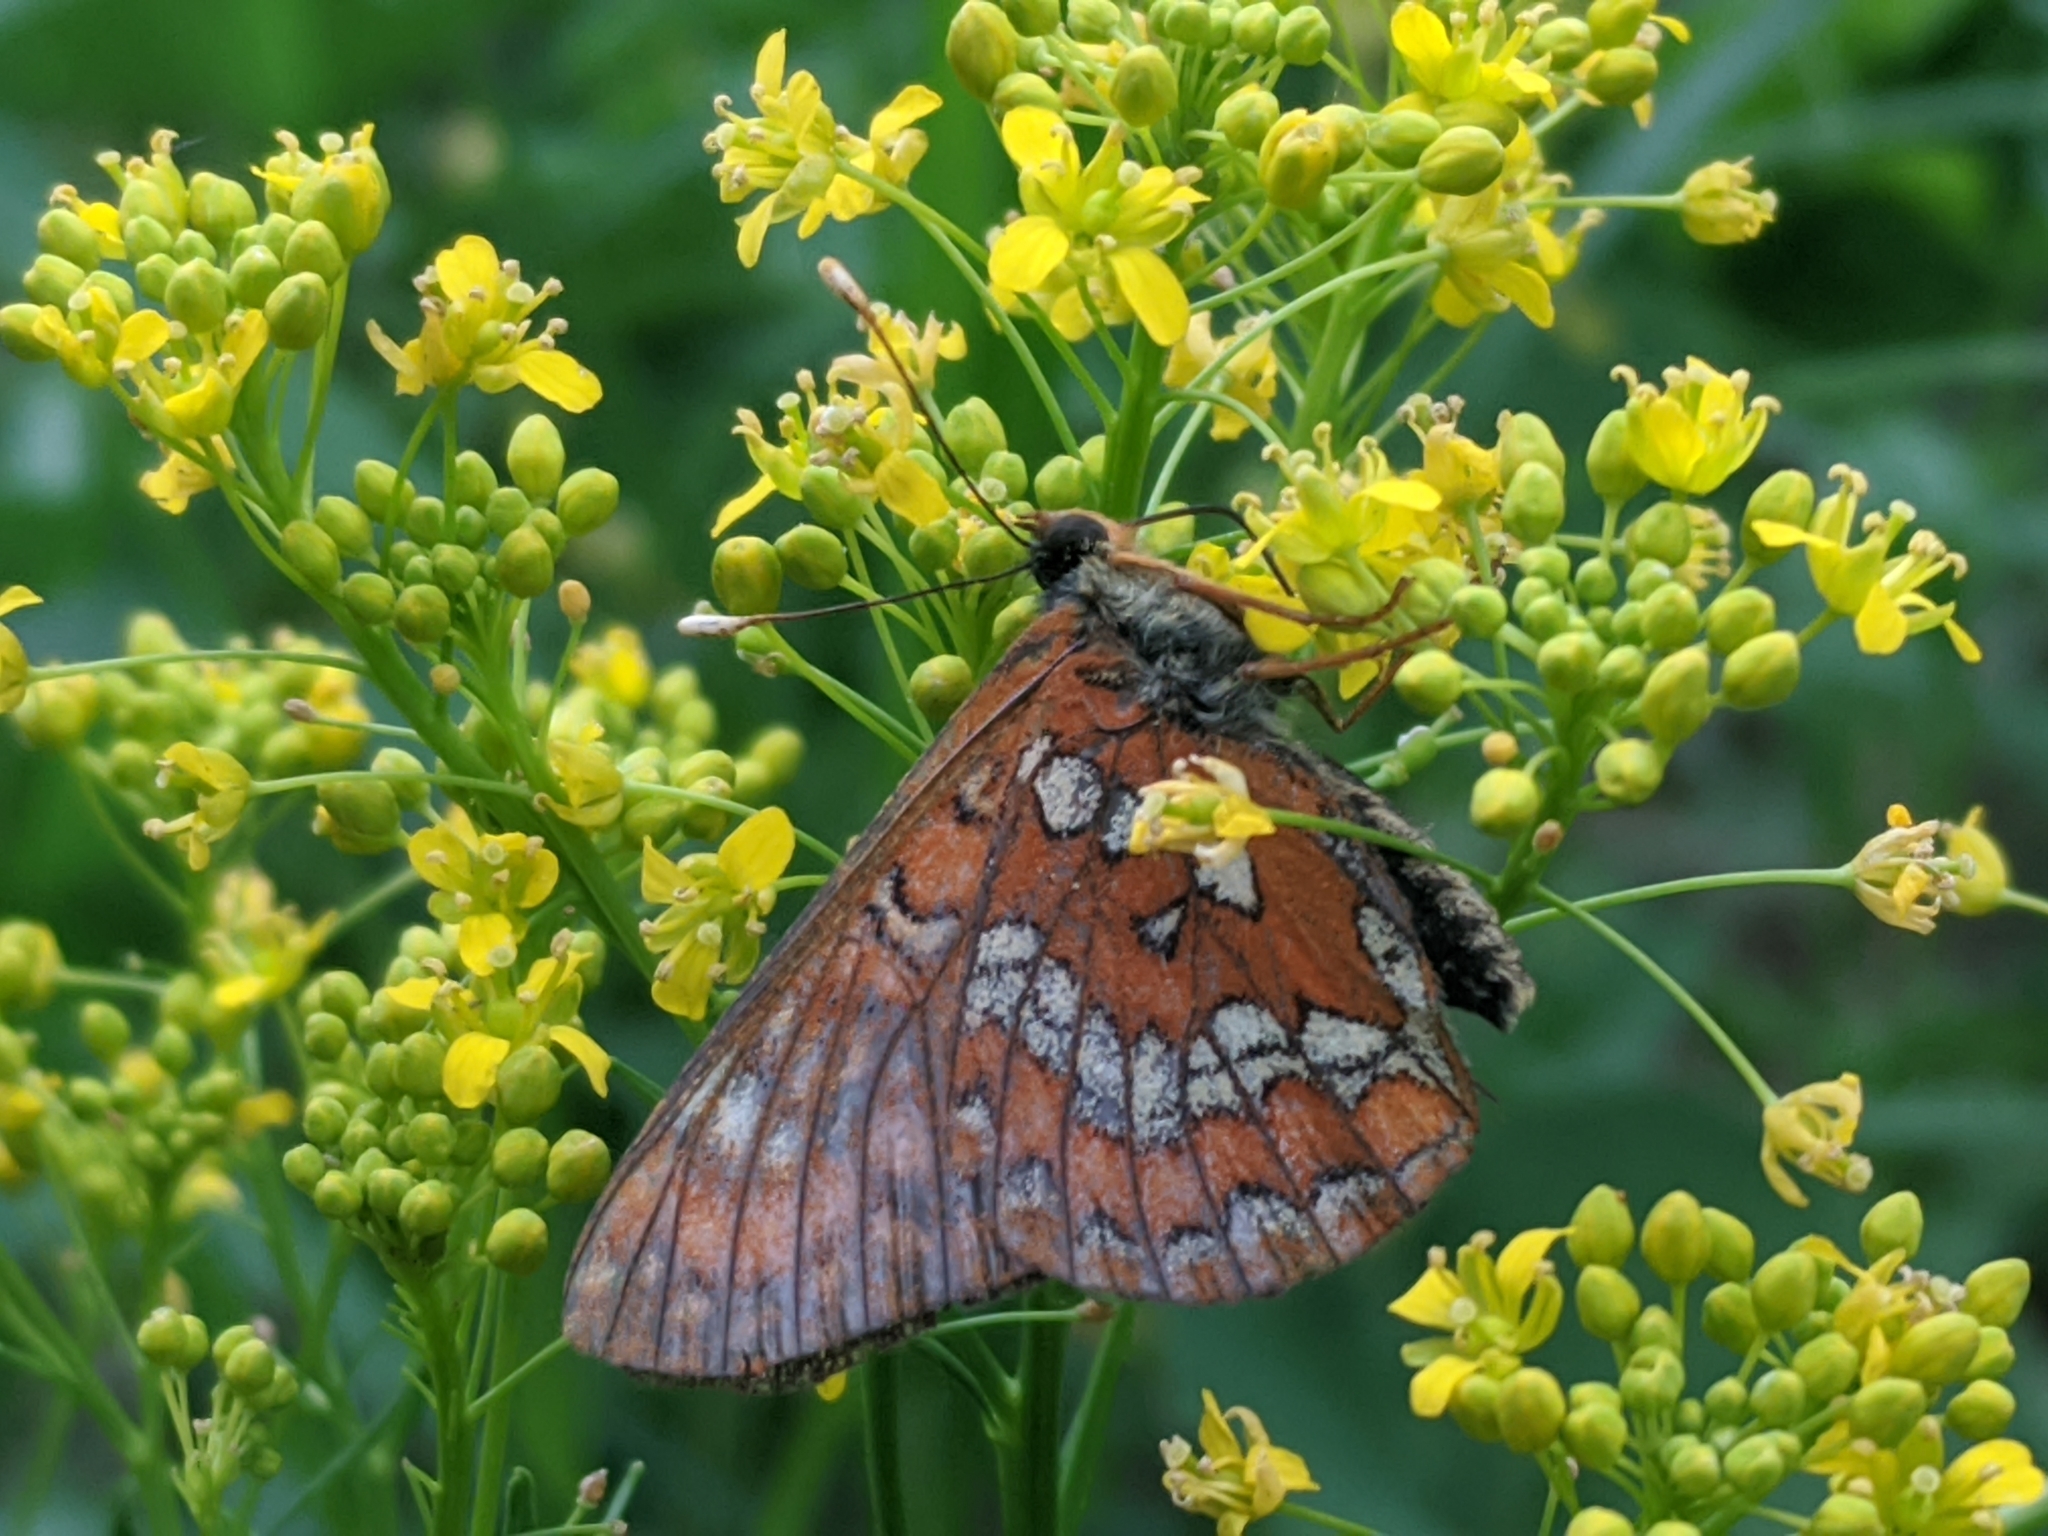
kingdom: Animalia
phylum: Arthropoda
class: Insecta
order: Lepidoptera
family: Nymphalidae
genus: Euphydryas
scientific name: Euphydryas maturna
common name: Scarce fritillary
